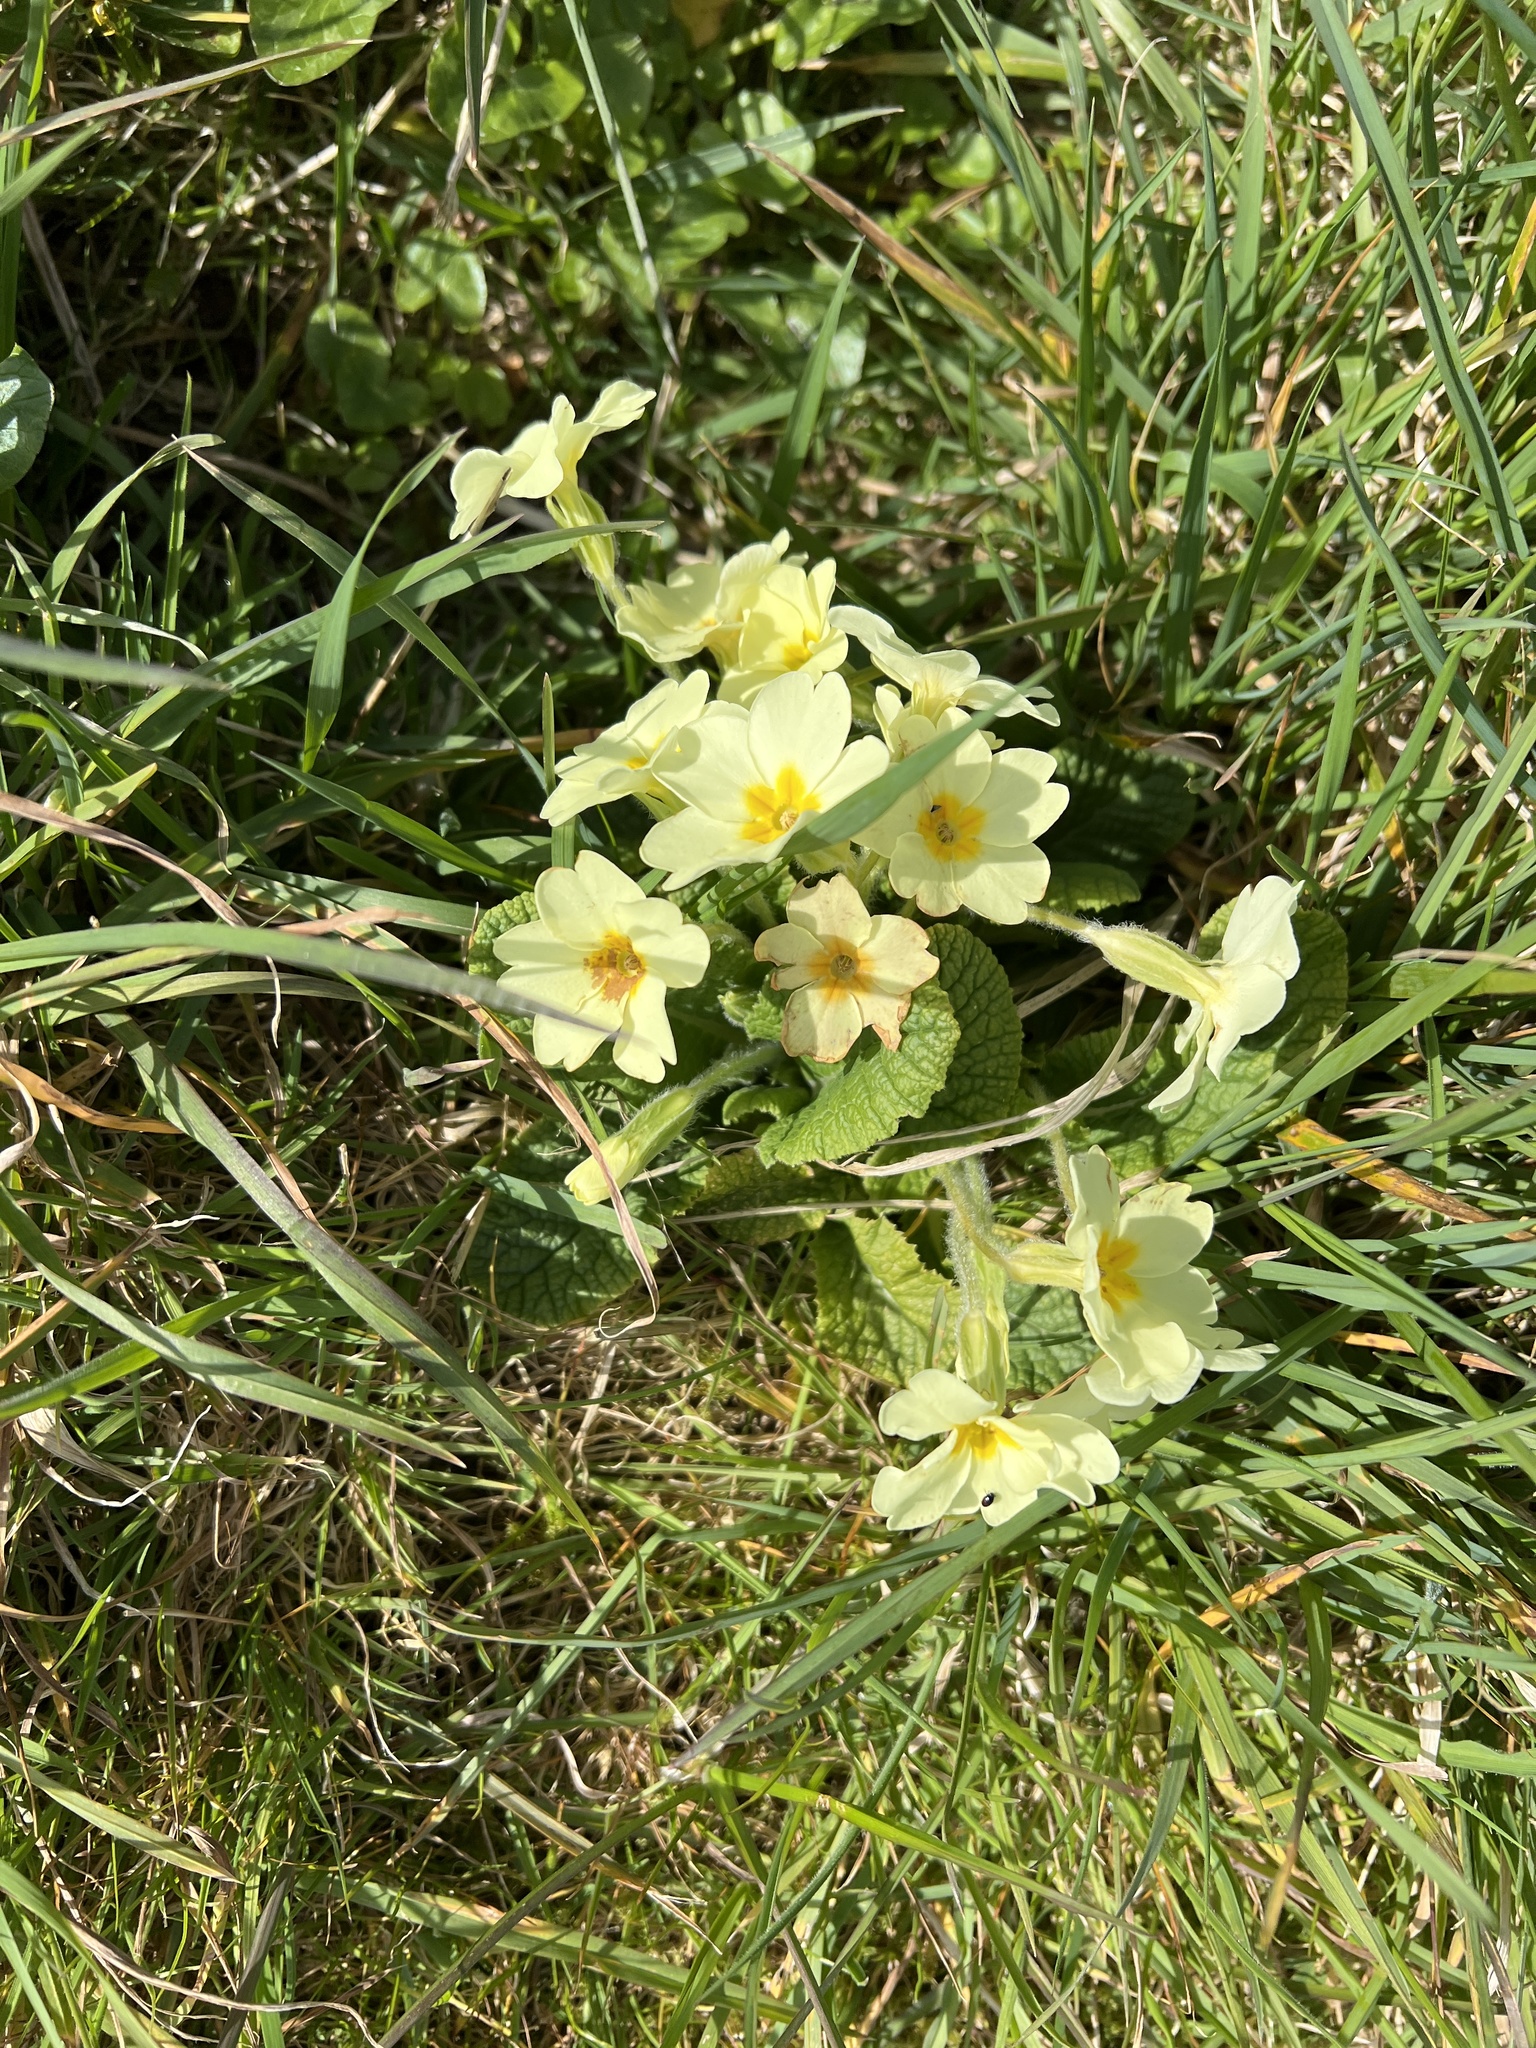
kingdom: Plantae
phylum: Tracheophyta
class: Magnoliopsida
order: Ericales
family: Primulaceae
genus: Primula
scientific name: Primula vulgaris
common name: Primrose
